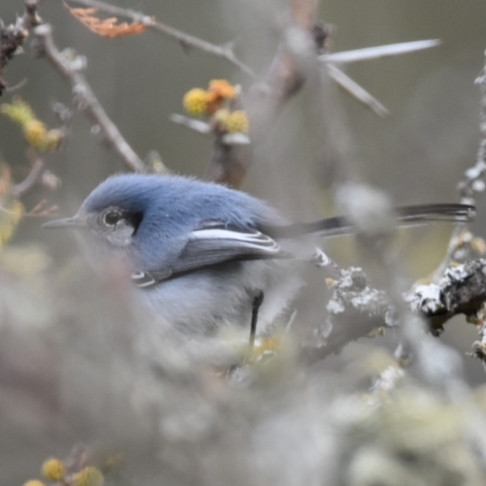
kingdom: Animalia
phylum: Chordata
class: Aves
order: Passeriformes
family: Polioptilidae
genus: Polioptila
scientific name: Polioptila dumicola
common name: Masked gnatcatcher
